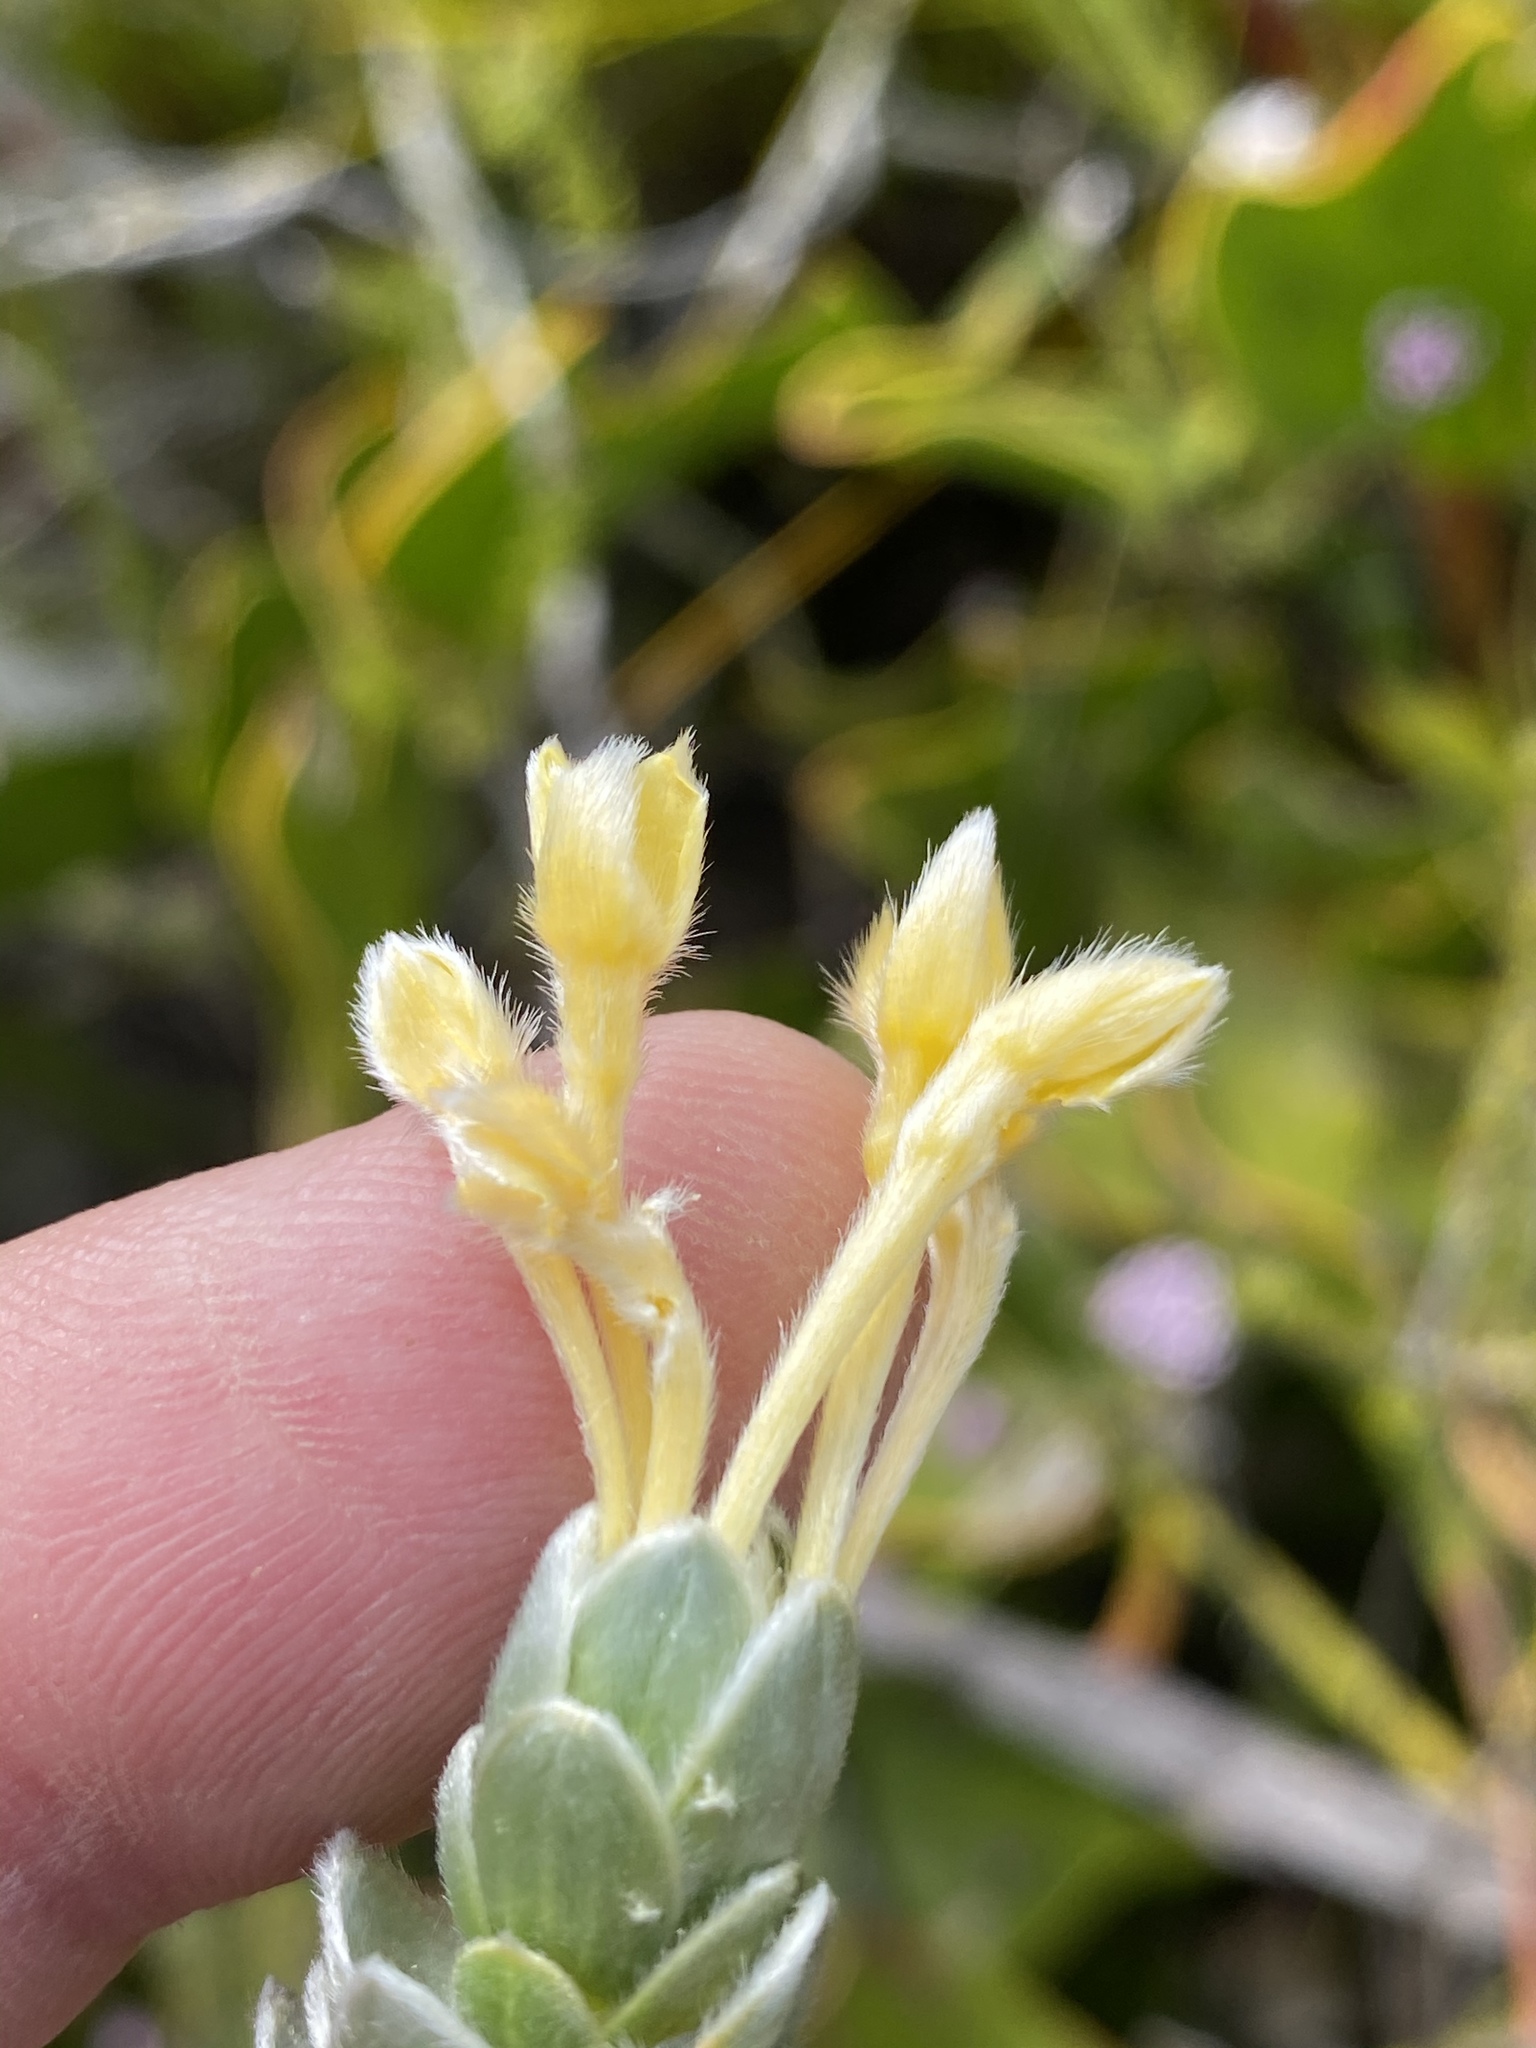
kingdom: Plantae
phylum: Tracheophyta
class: Magnoliopsida
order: Malvales
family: Thymelaeaceae
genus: Gnidia
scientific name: Gnidia anomala
